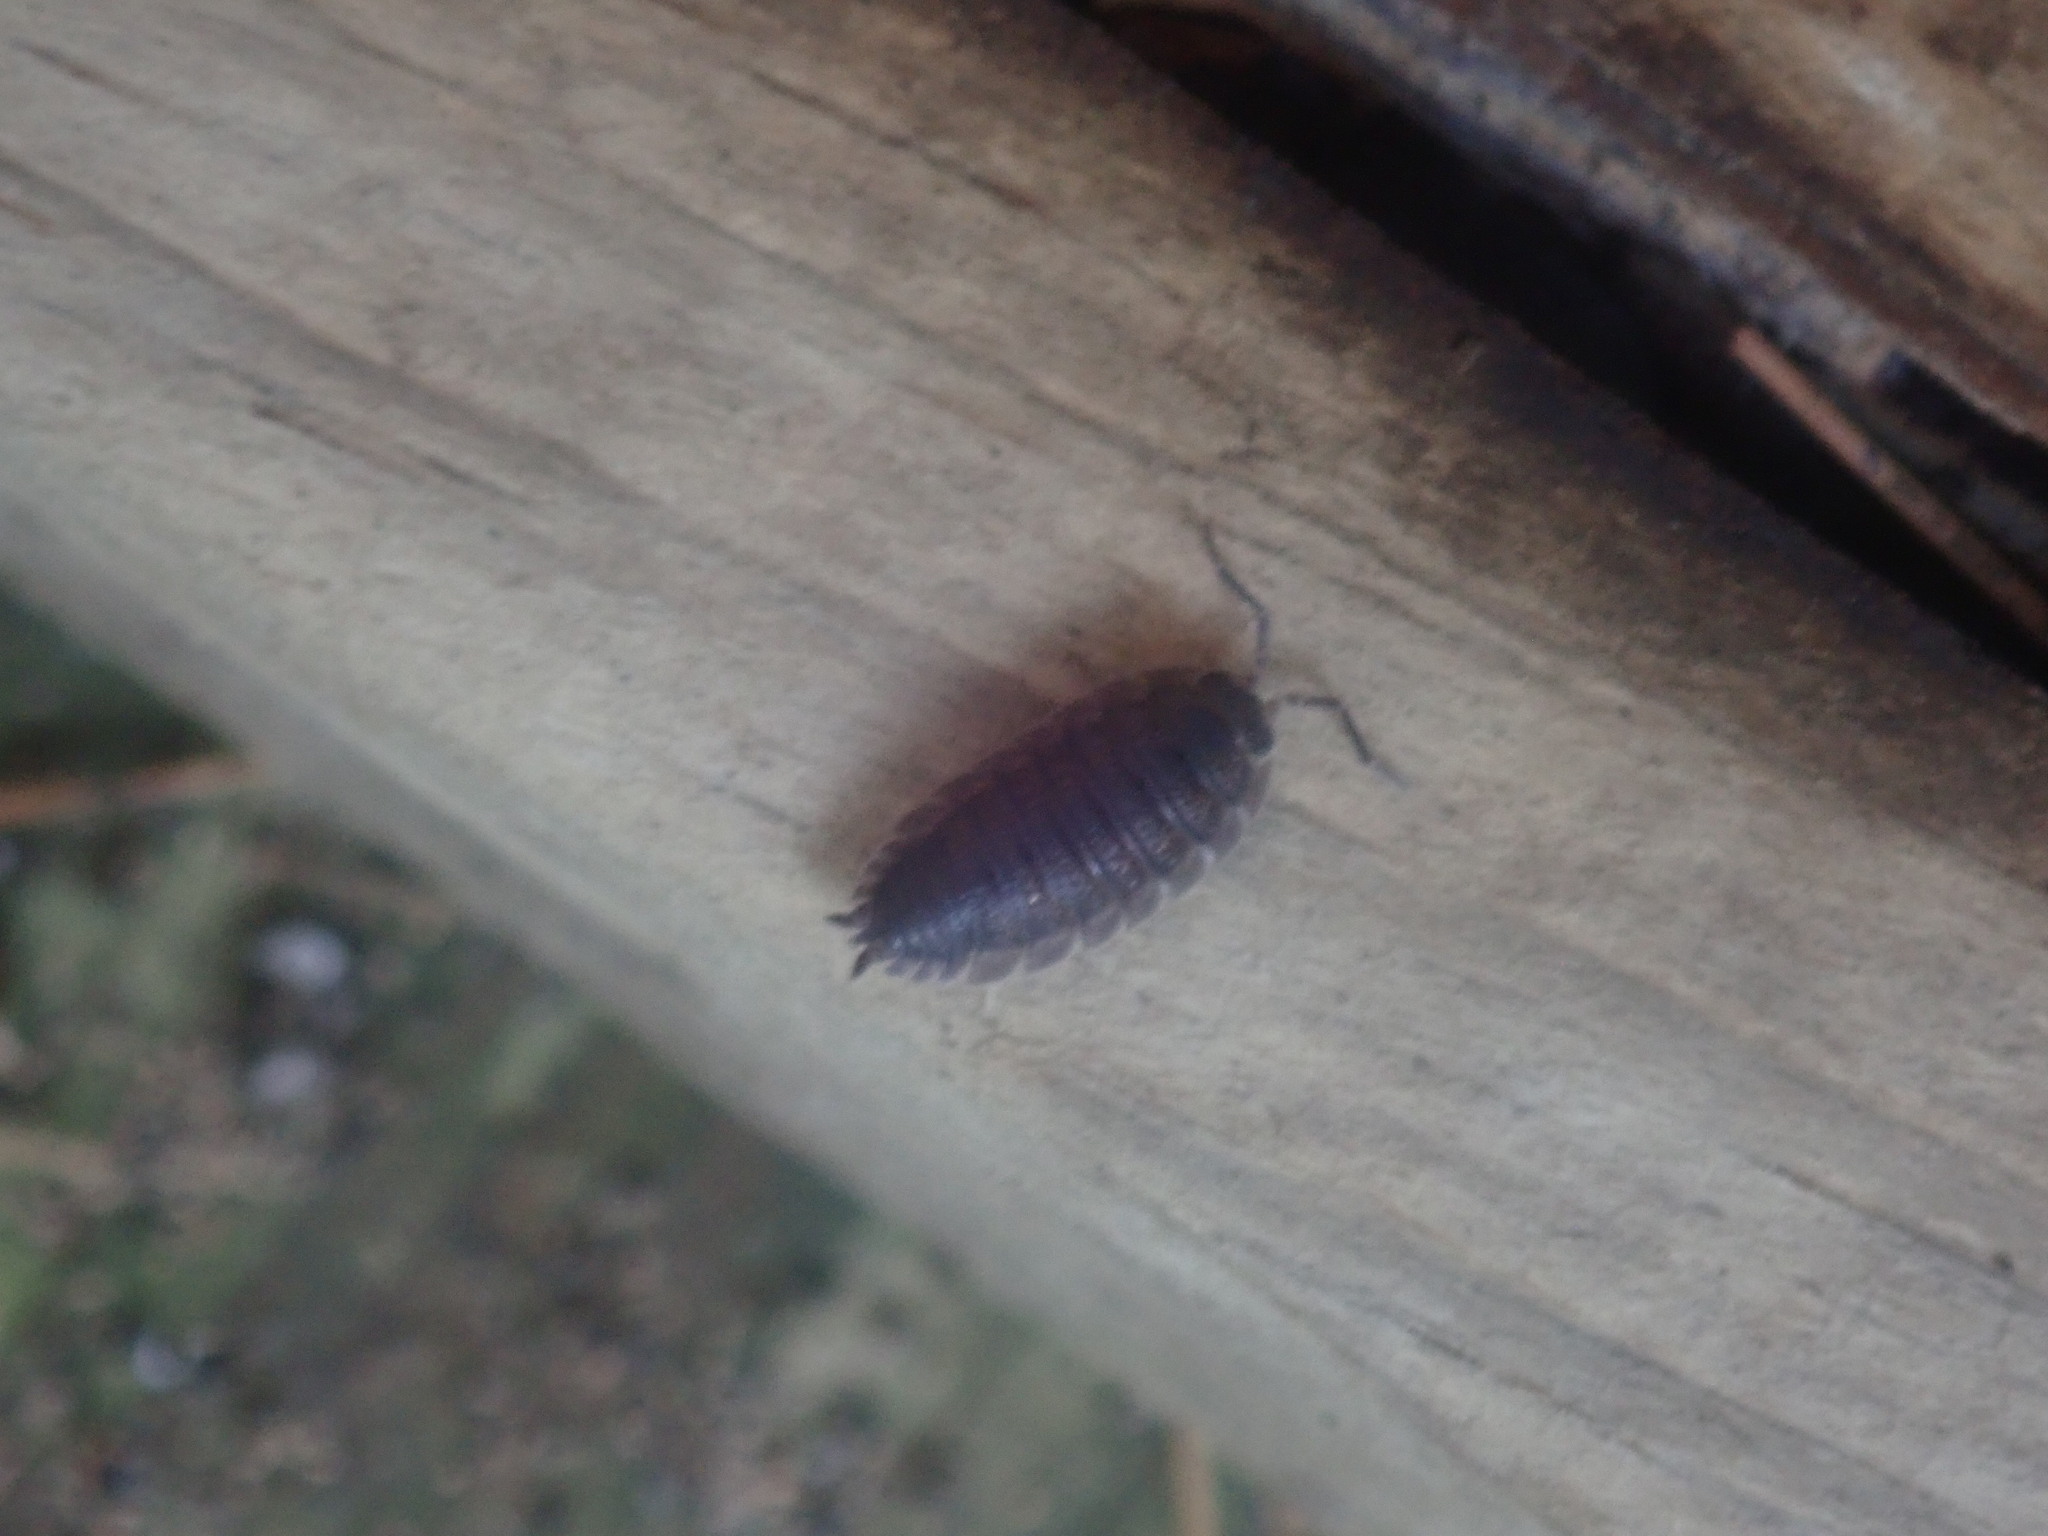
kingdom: Animalia
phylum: Arthropoda
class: Malacostraca
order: Isopoda
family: Porcellionidae
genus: Porcellio
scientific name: Porcellio scaber
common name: Common rough woodlouse
